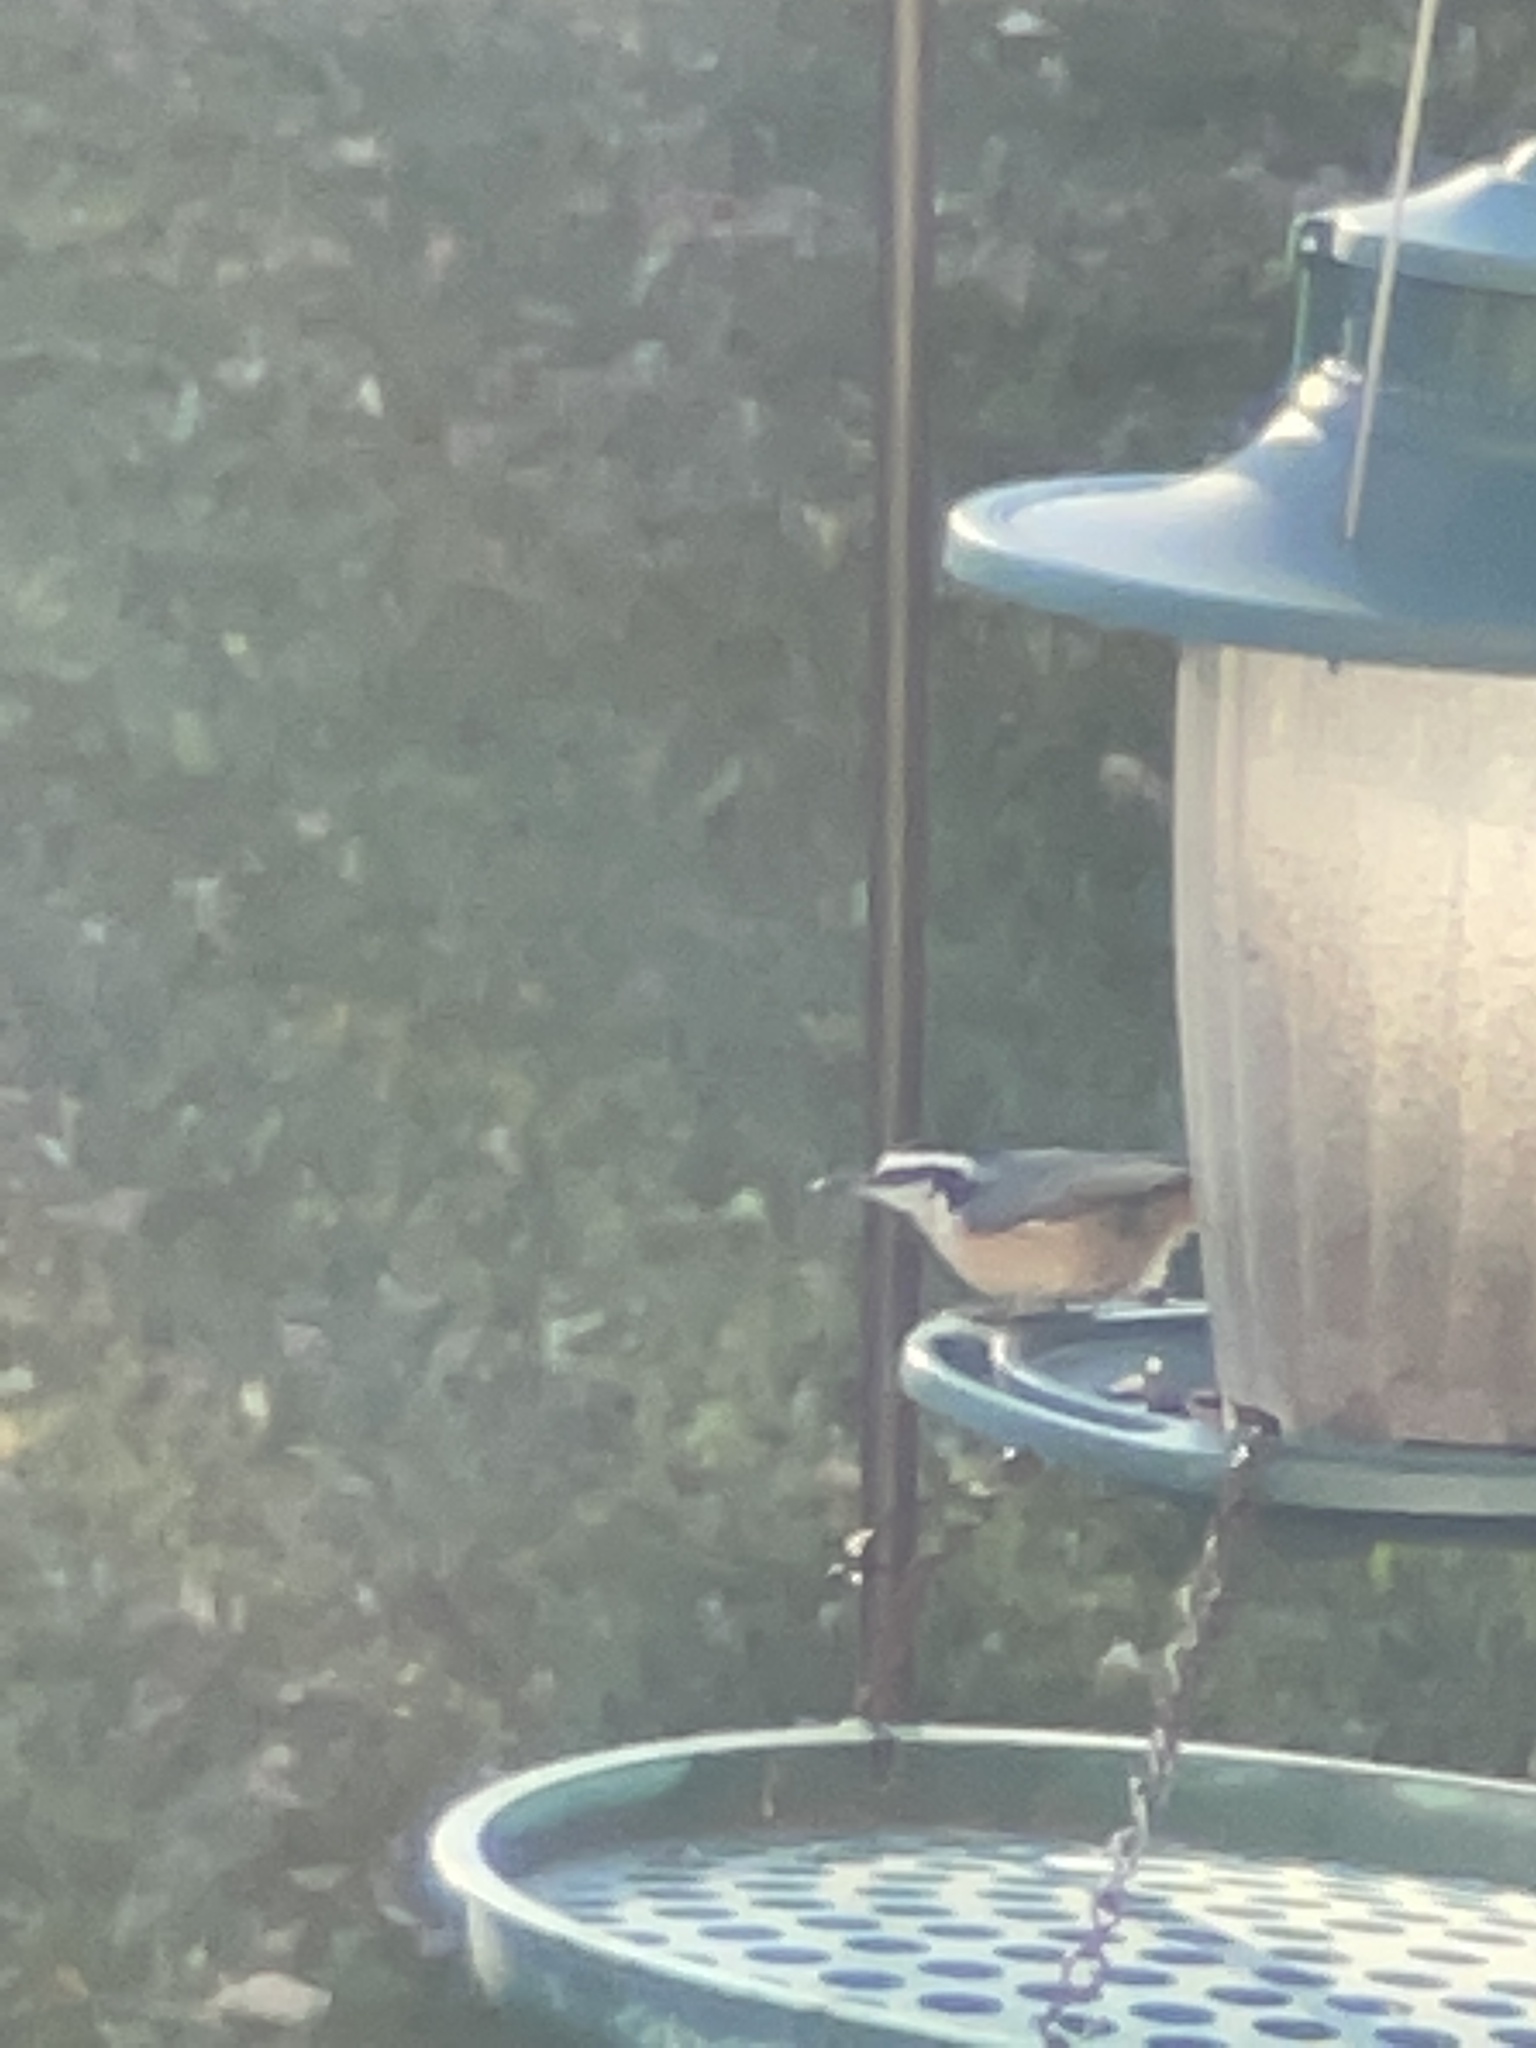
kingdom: Animalia
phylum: Chordata
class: Aves
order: Passeriformes
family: Sittidae
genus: Sitta
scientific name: Sitta canadensis
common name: Red-breasted nuthatch
